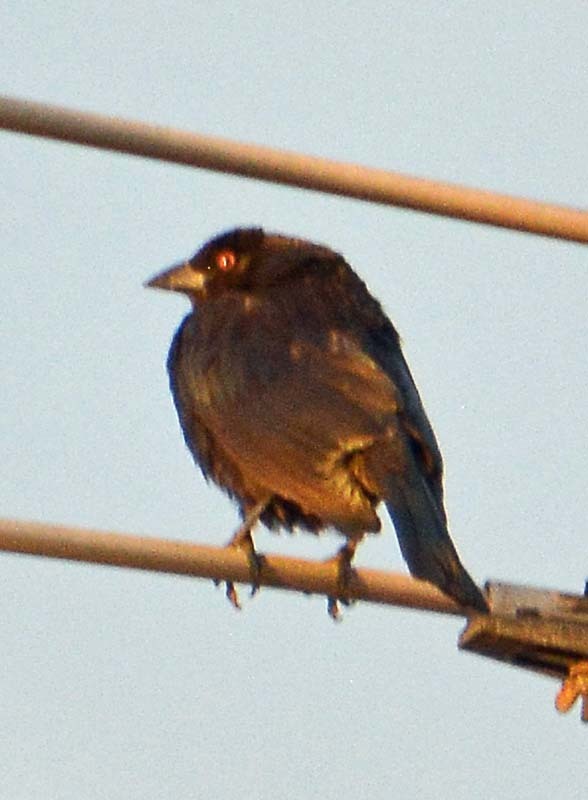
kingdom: Animalia
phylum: Chordata
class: Aves
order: Passeriformes
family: Icteridae
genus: Molothrus
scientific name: Molothrus aeneus
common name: Bronzed cowbird
